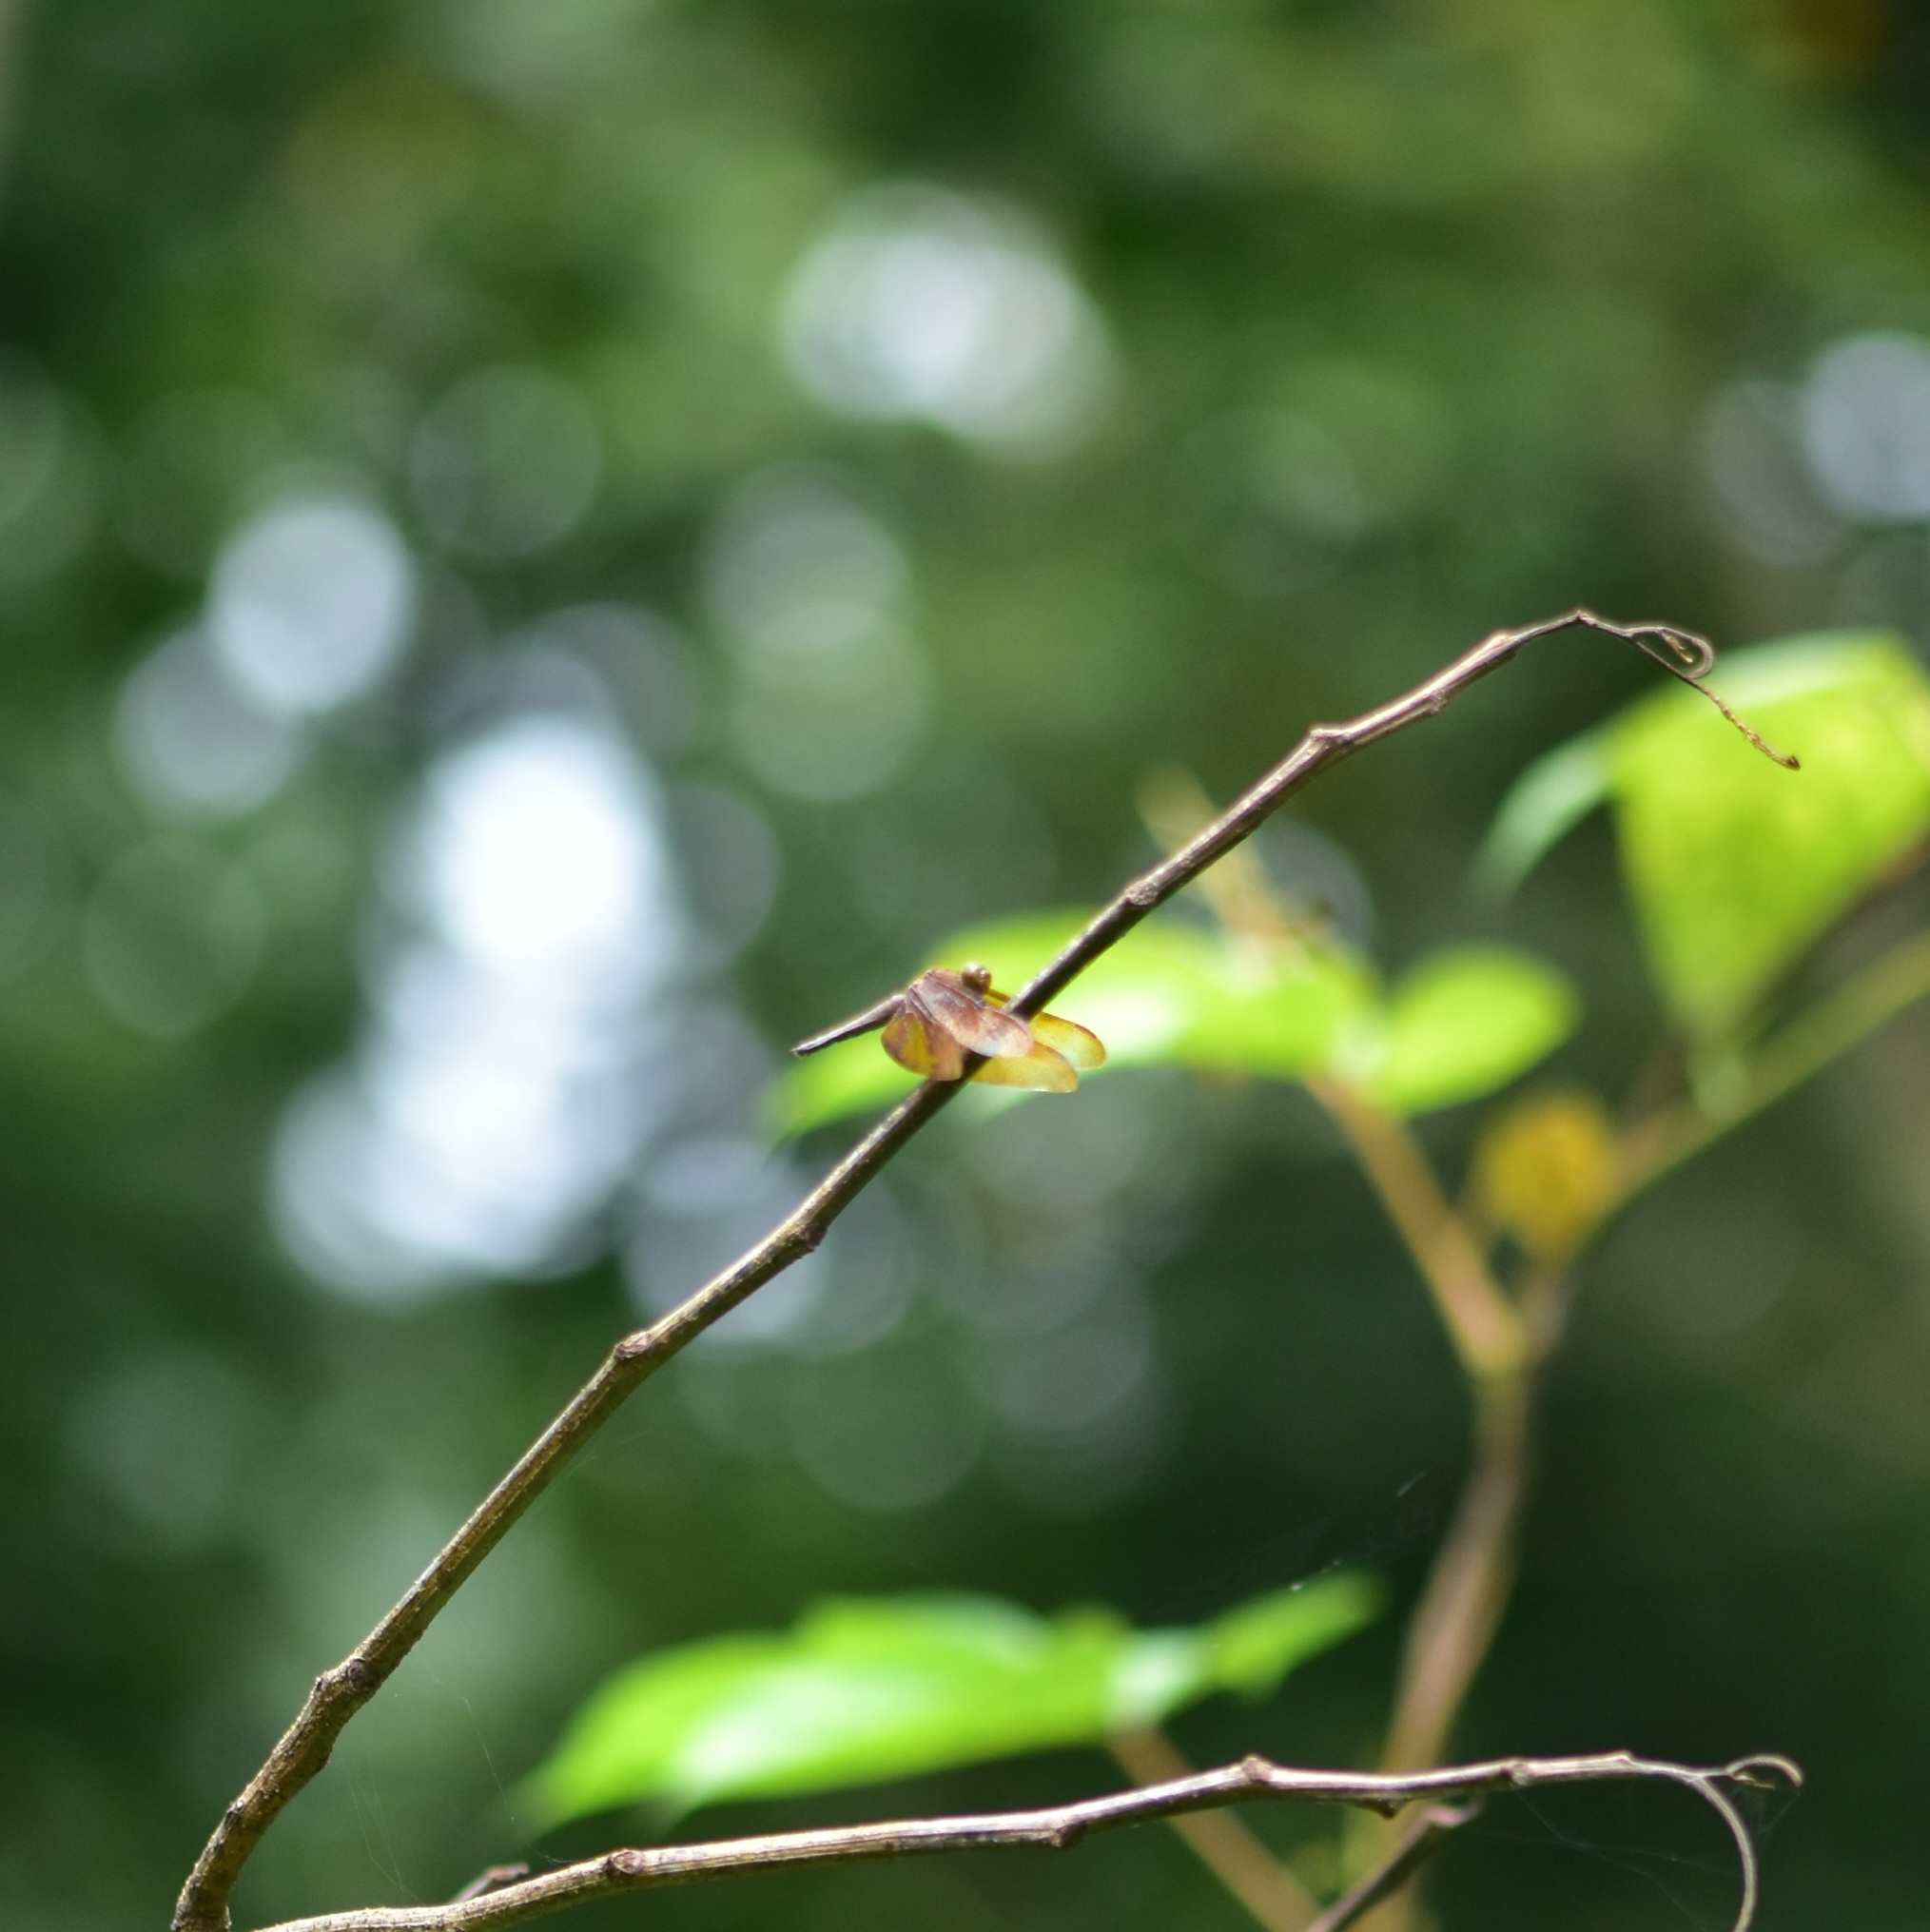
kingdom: Animalia
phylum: Arthropoda
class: Insecta
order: Odonata
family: Libellulidae
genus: Neurothemis
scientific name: Neurothemis fulvia
